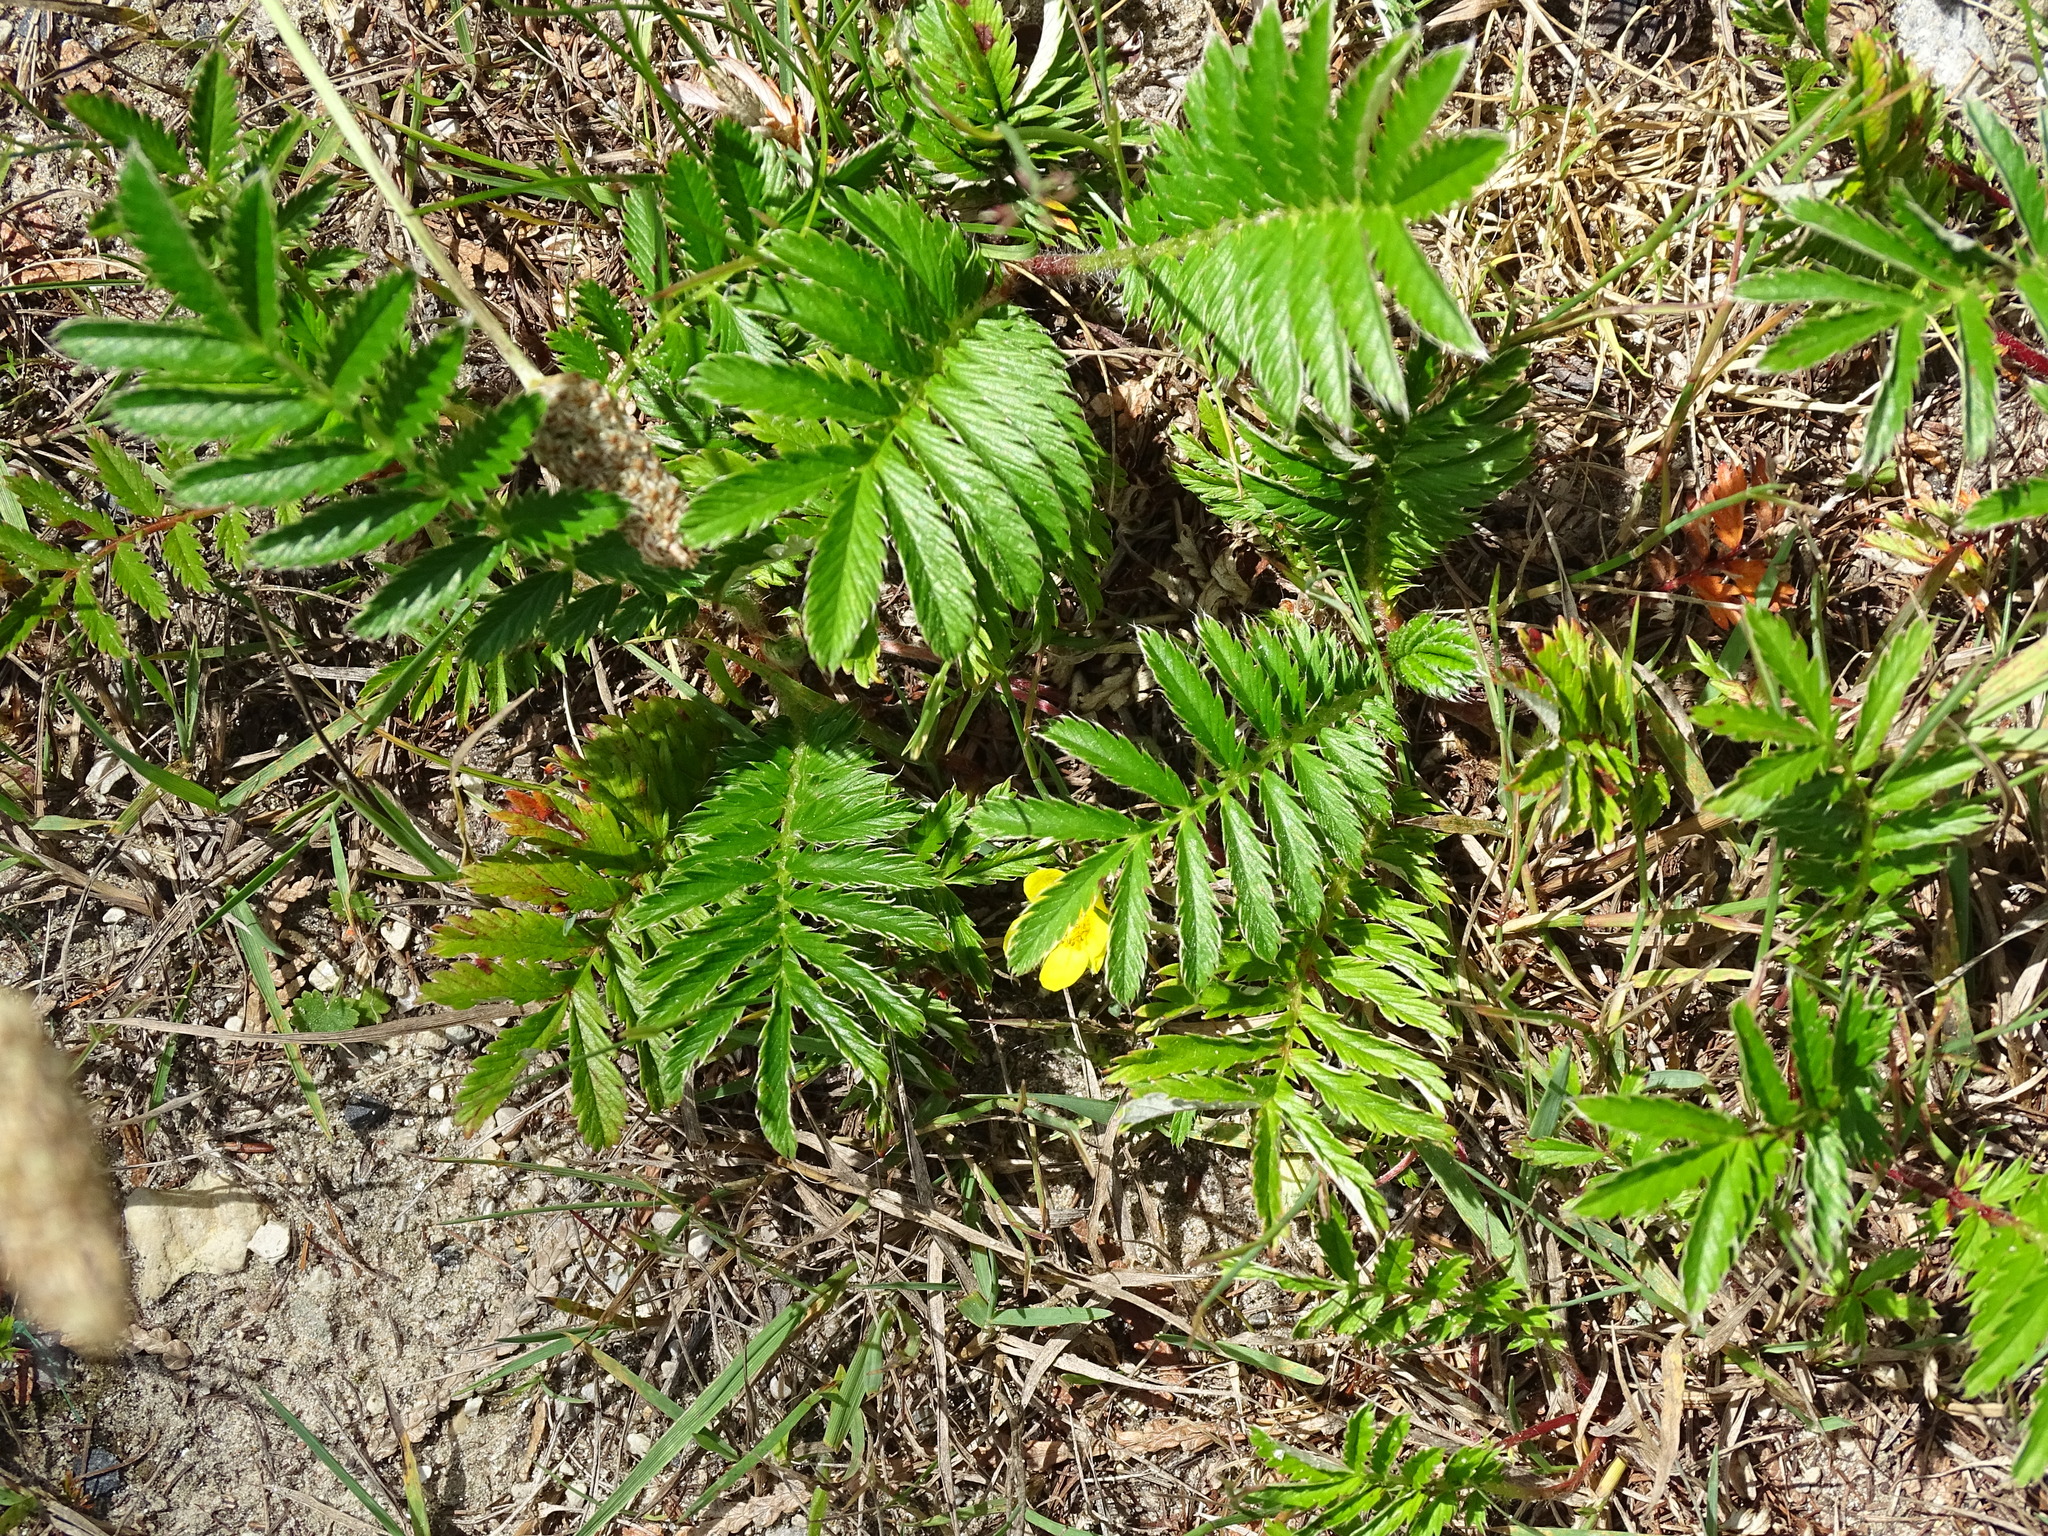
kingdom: Plantae
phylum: Tracheophyta
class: Magnoliopsida
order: Rosales
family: Rosaceae
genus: Argentina
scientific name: Argentina anserina
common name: Common silverweed
